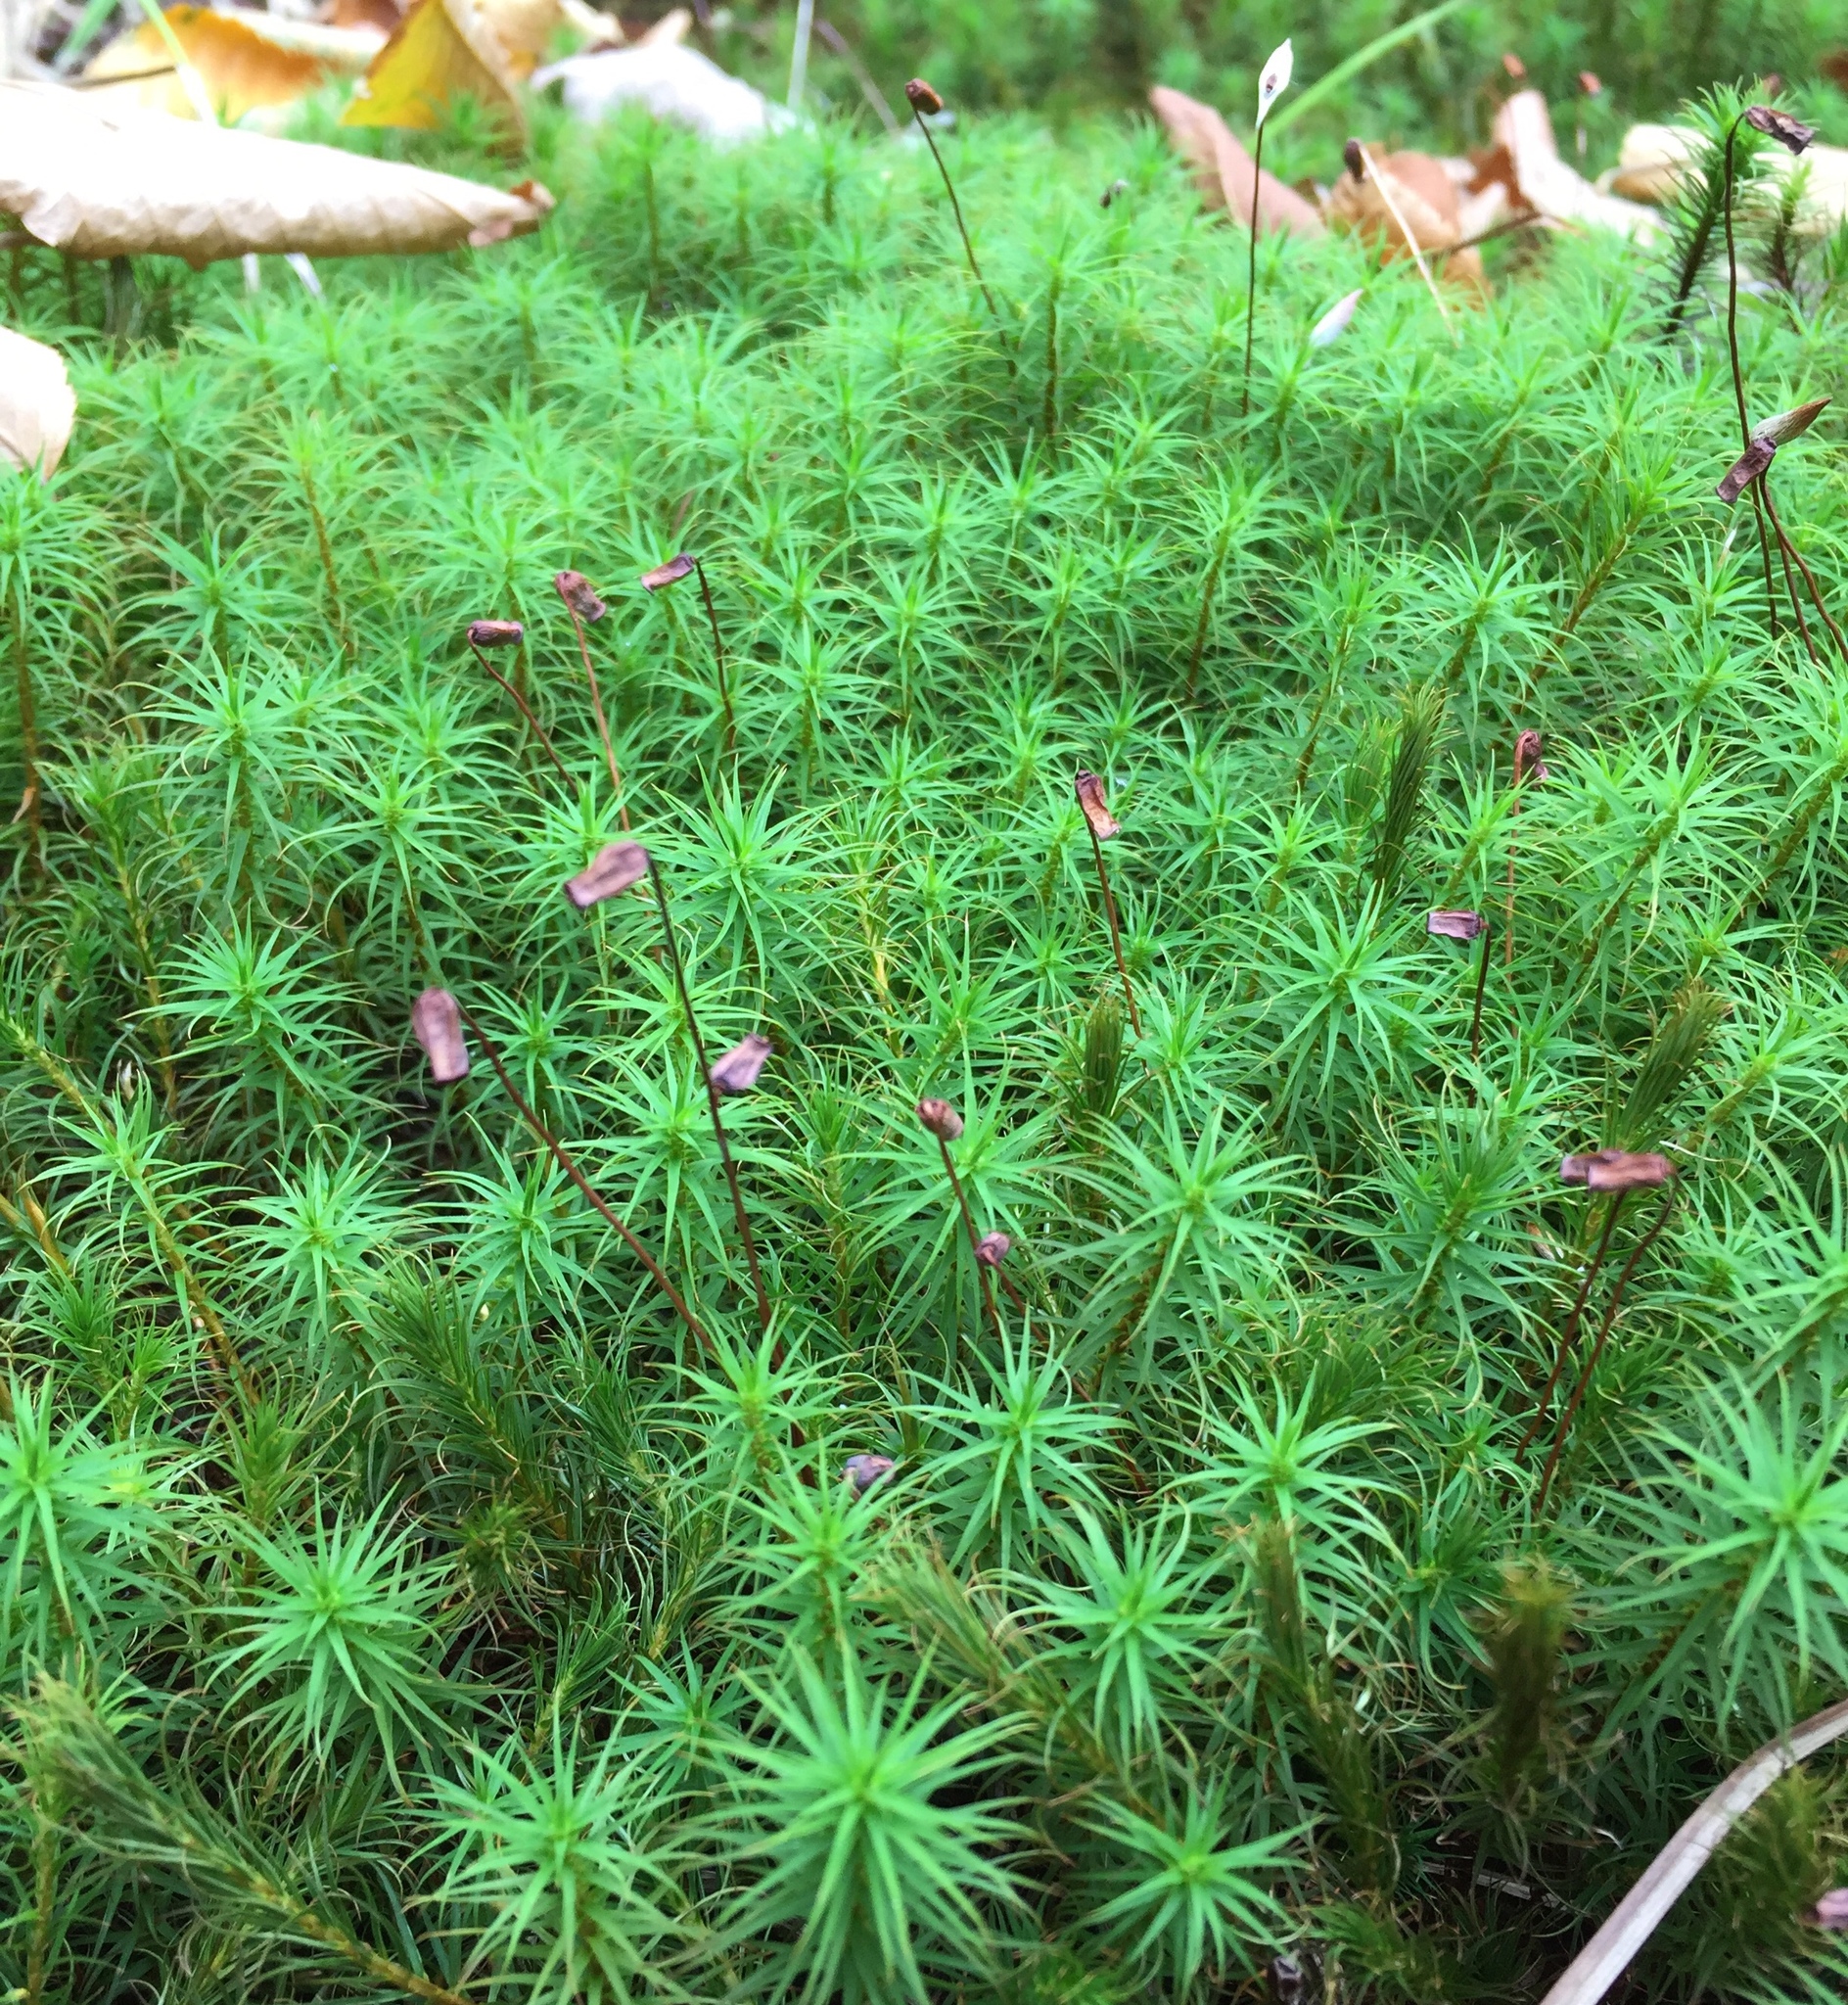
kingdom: Plantae
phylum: Bryophyta
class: Polytrichopsida
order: Polytrichales
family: Polytrichaceae
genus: Polytrichum
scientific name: Polytrichum commune
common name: Common haircap
